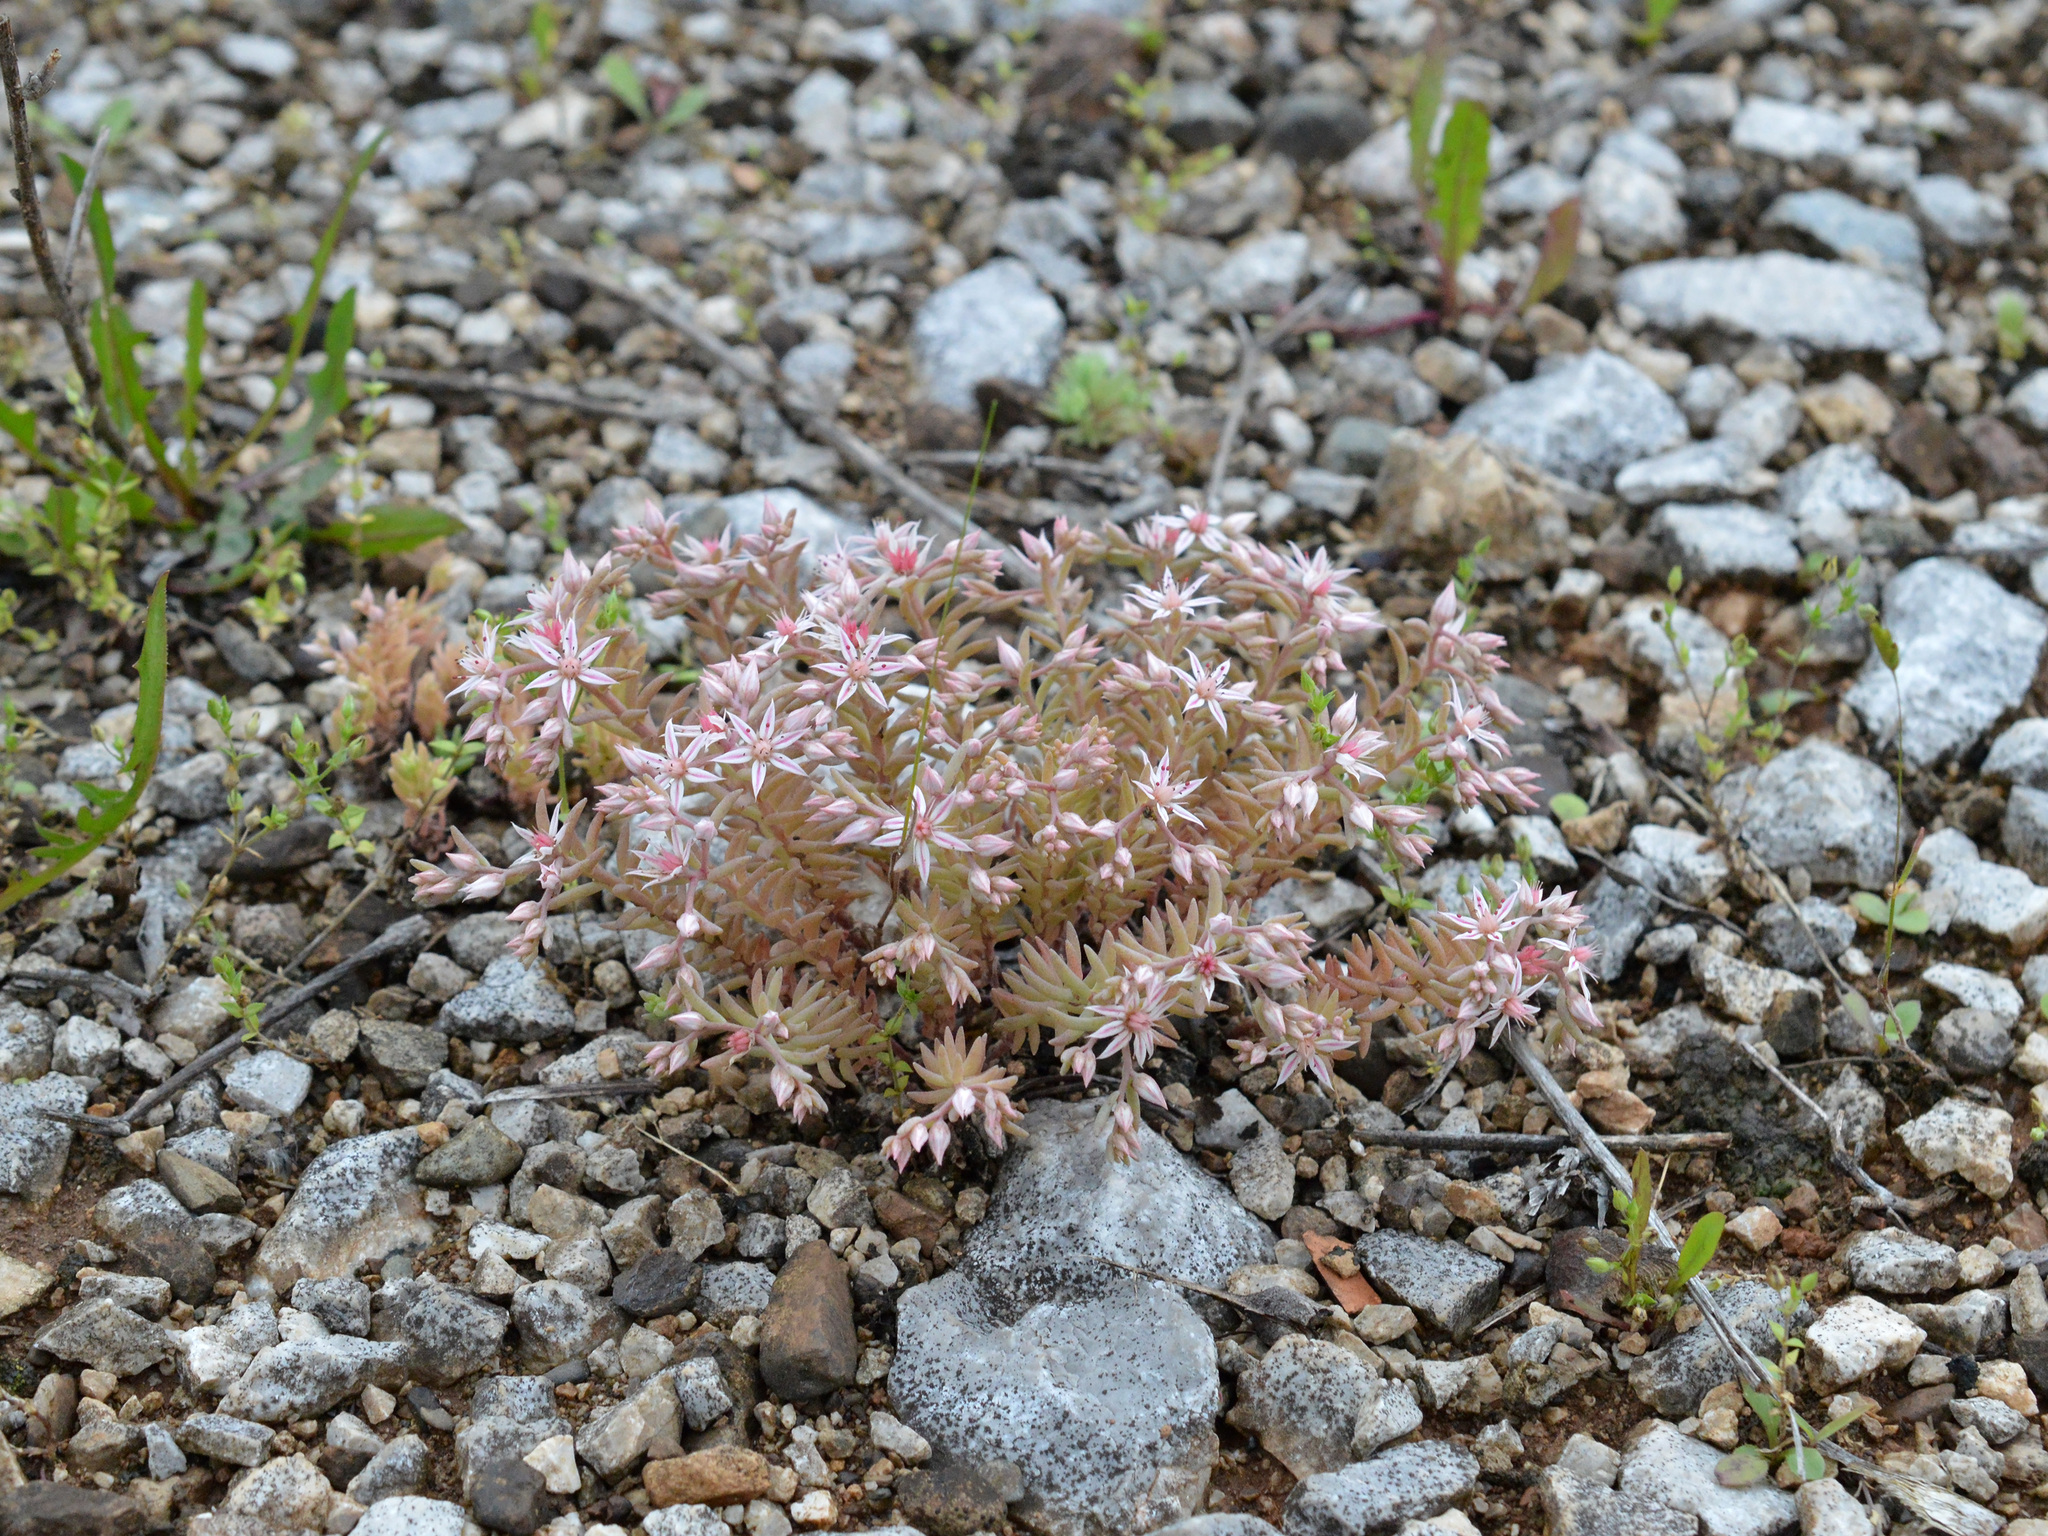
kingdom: Plantae
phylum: Tracheophyta
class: Magnoliopsida
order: Saxifragales
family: Crassulaceae
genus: Sedum
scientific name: Sedum hispanicum
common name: Spanish stonecrop
